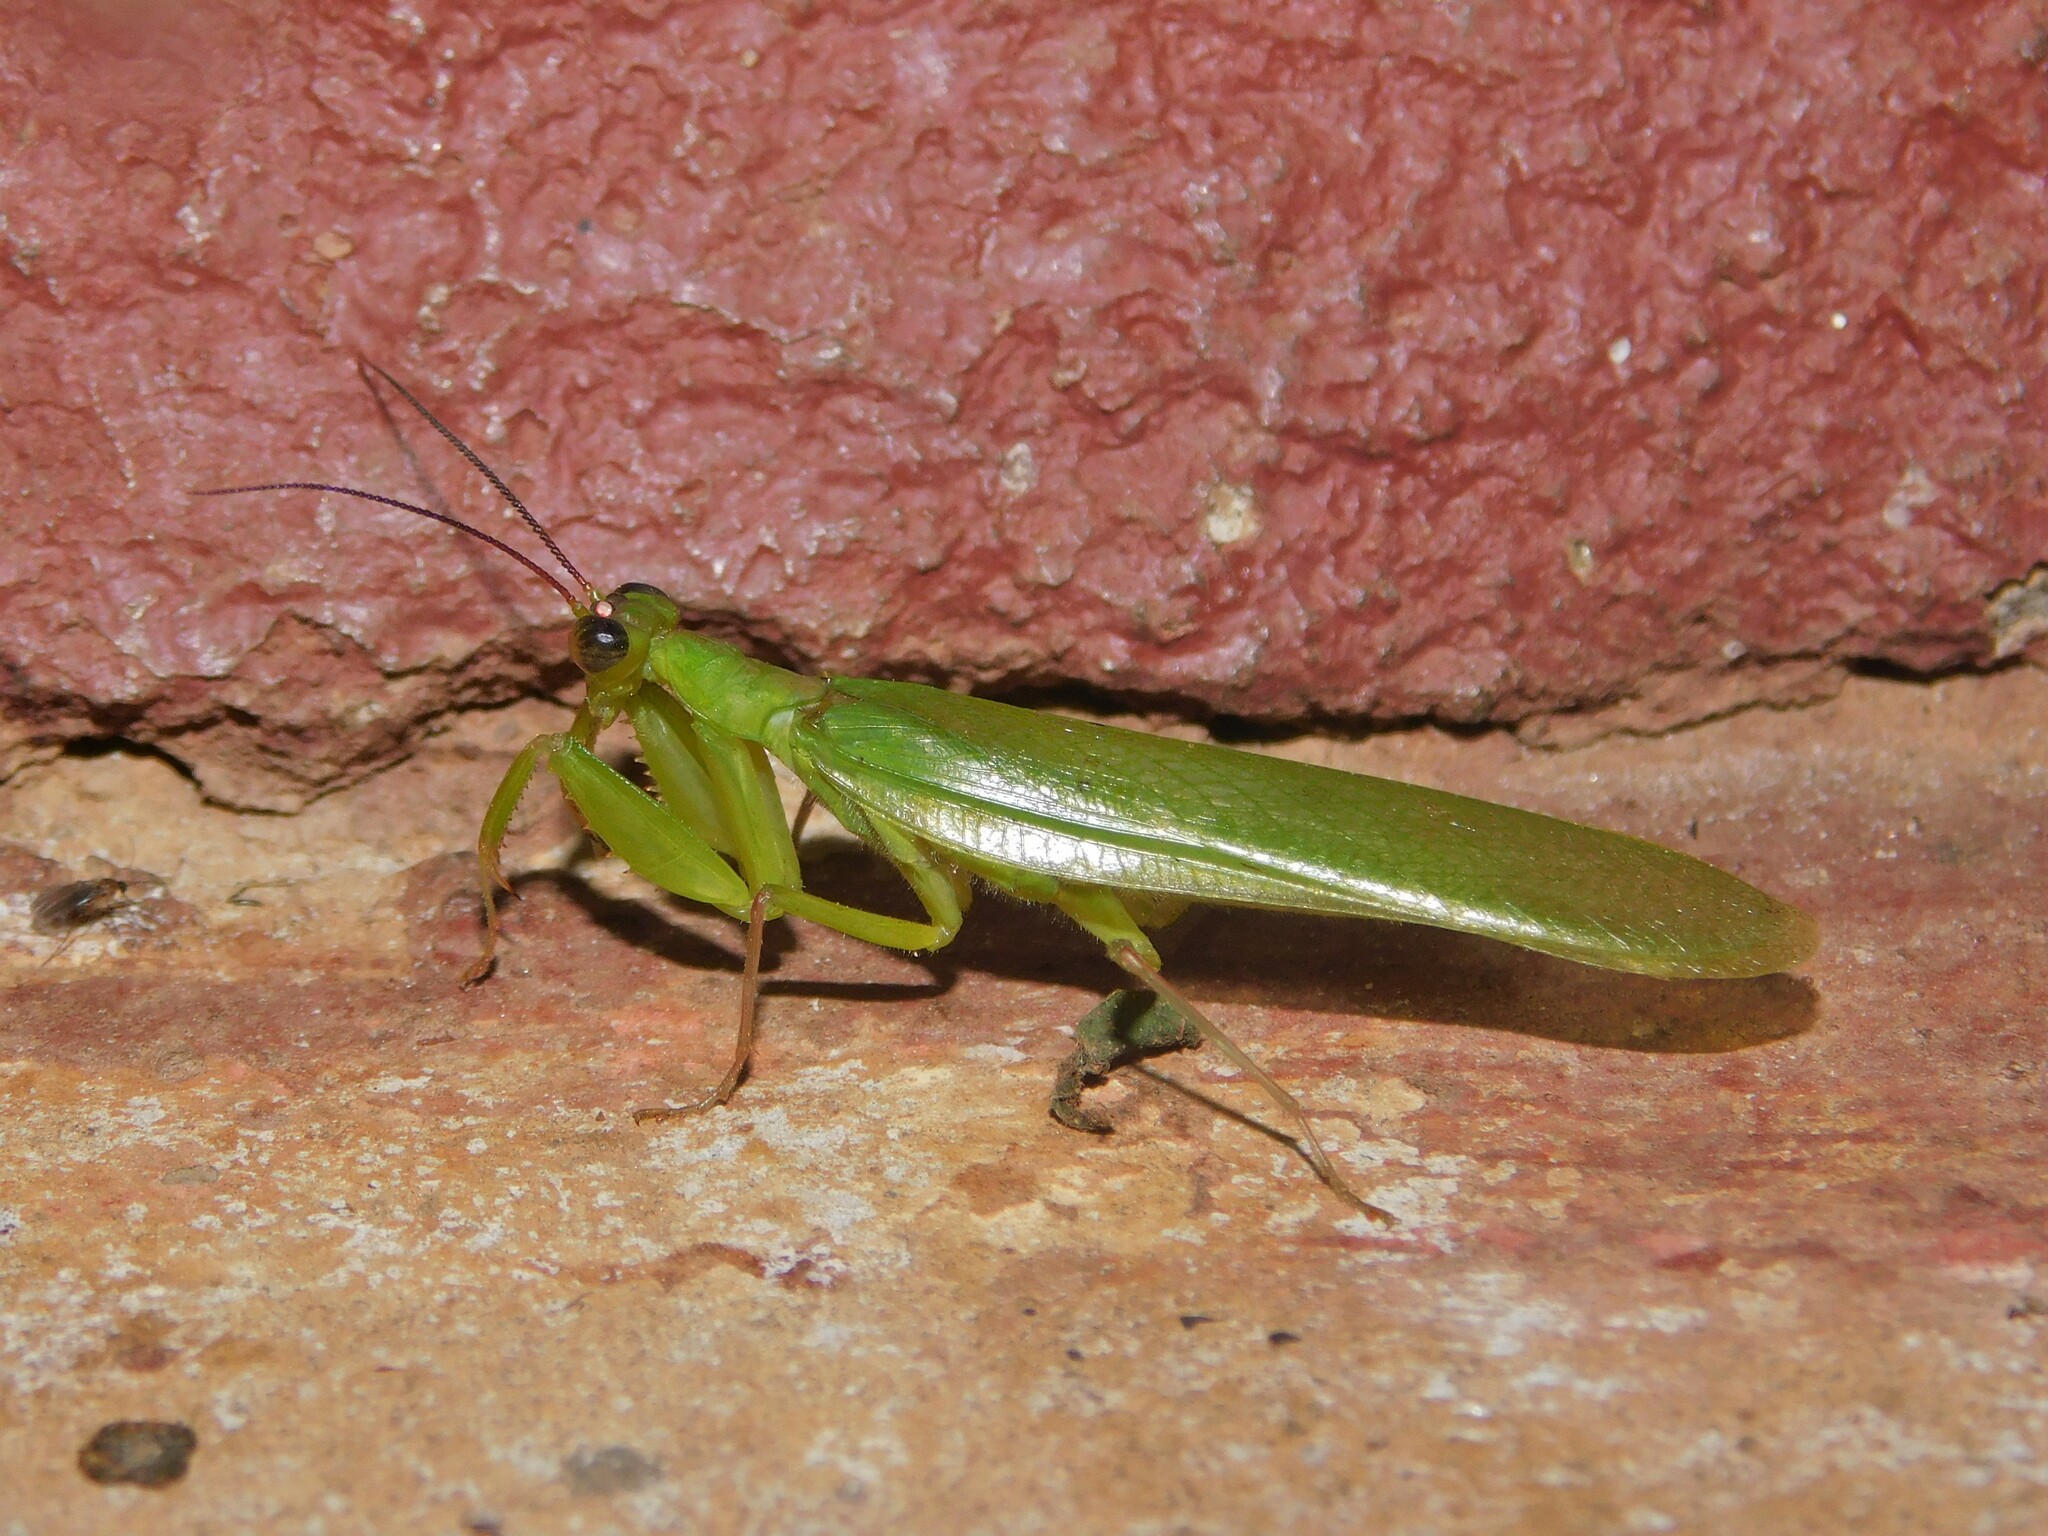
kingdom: Animalia
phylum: Arthropoda
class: Insecta
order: Mantodea
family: Hymenopodidae
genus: Chloroharpax
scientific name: Chloroharpax modesta
